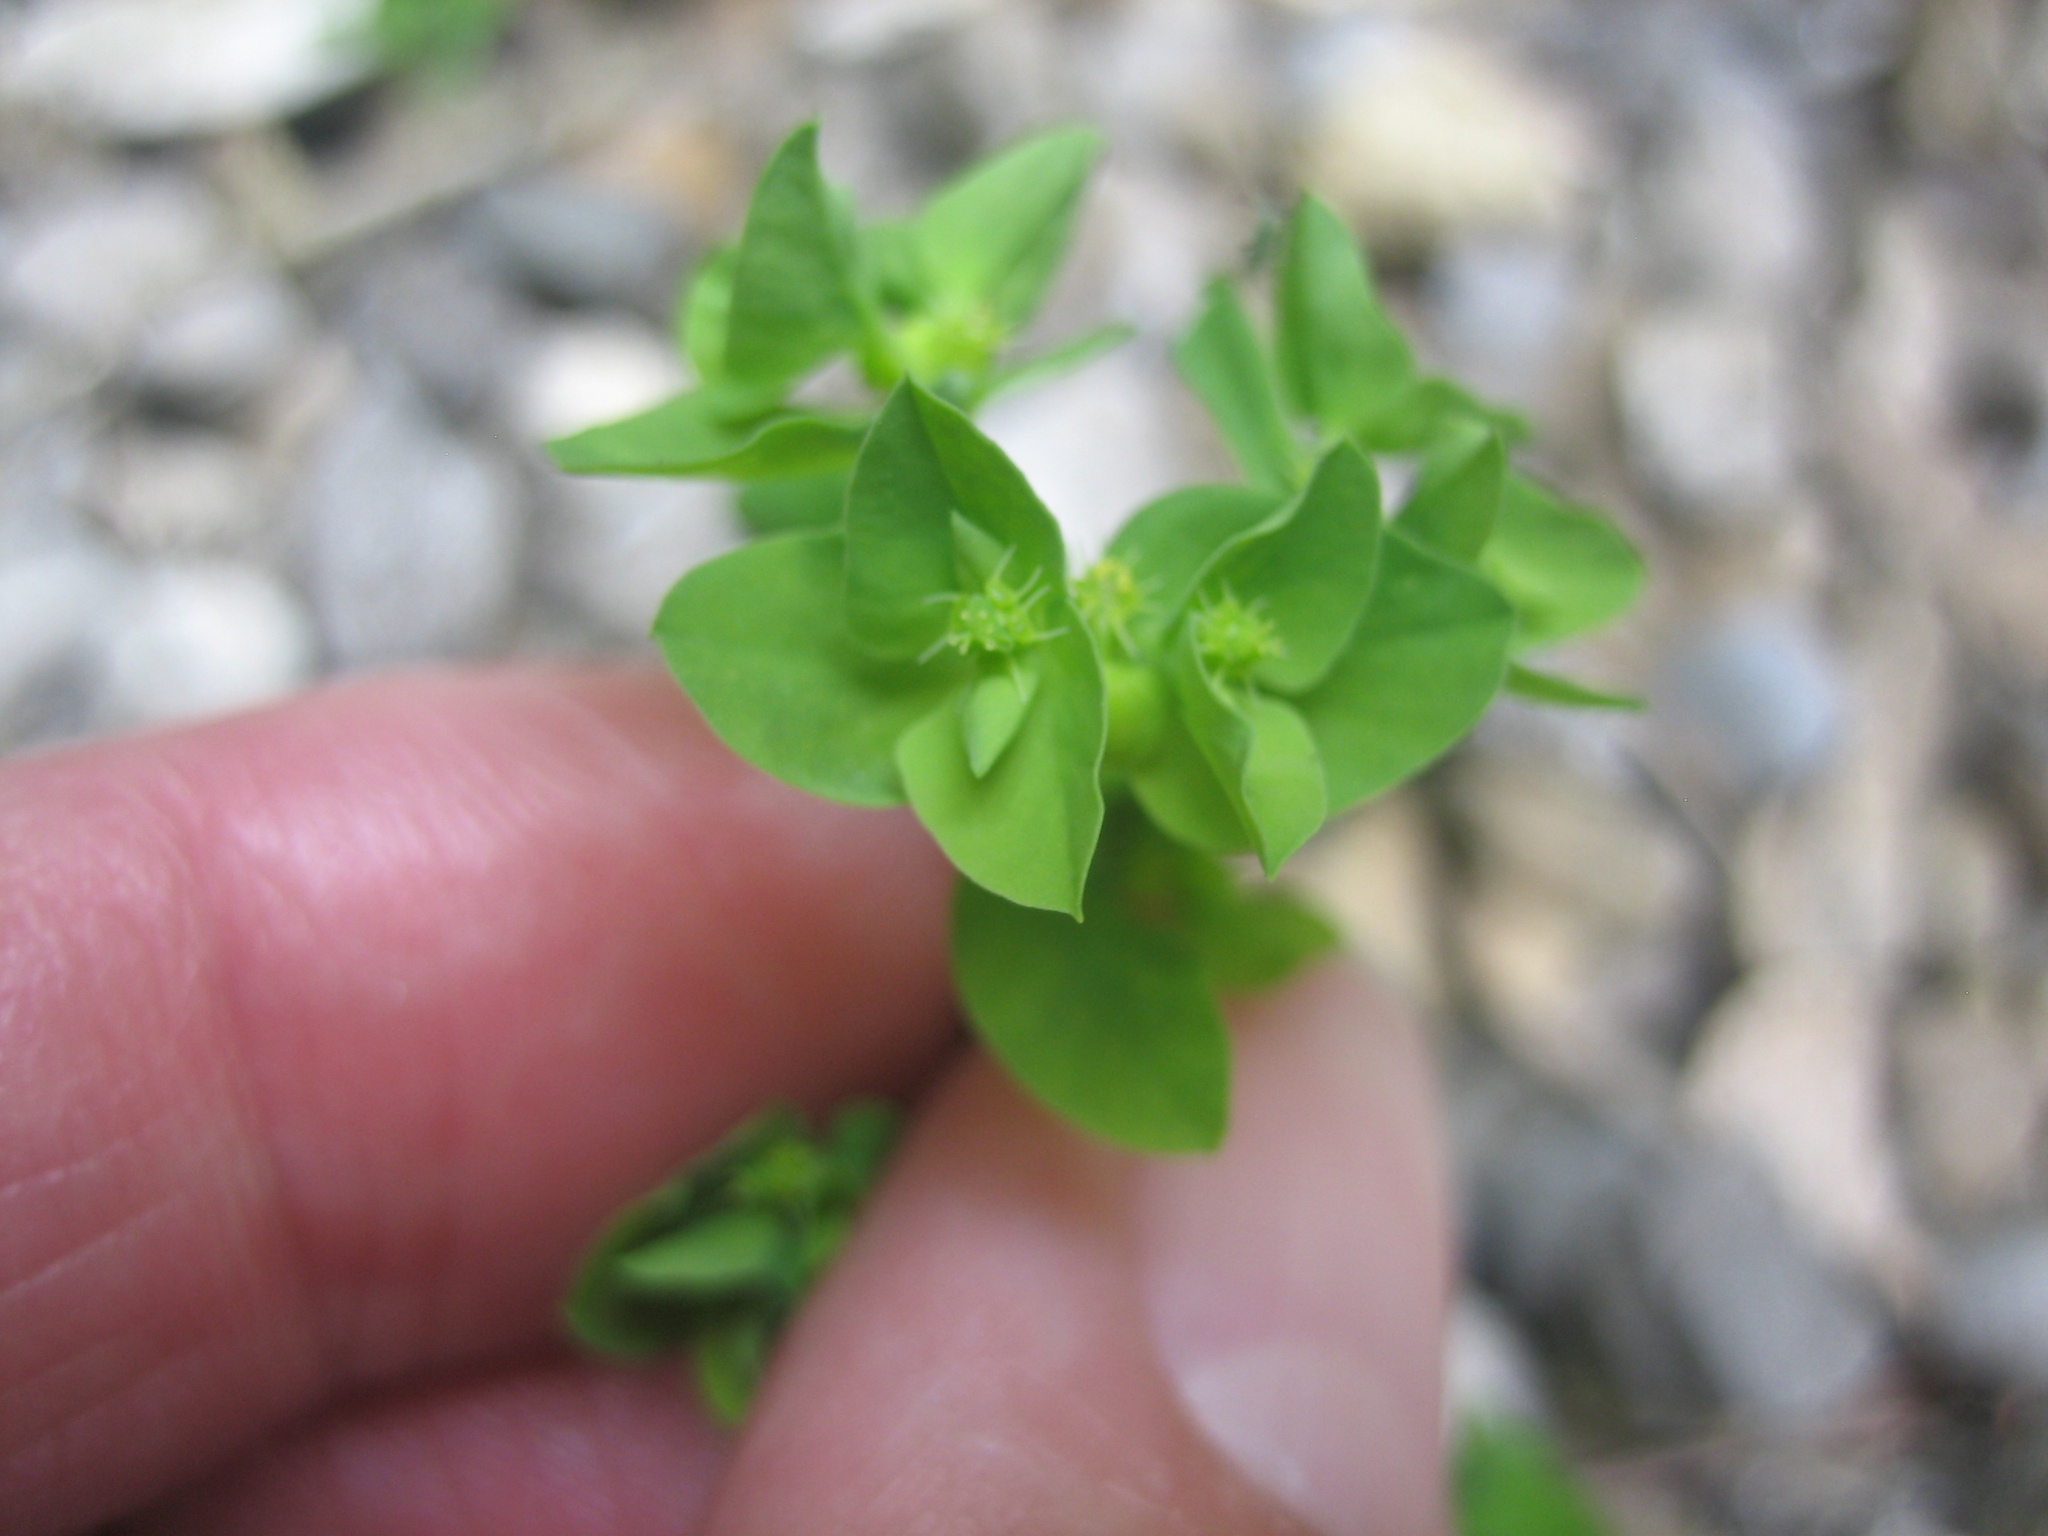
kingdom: Plantae
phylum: Tracheophyta
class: Magnoliopsida
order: Malpighiales
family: Euphorbiaceae
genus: Euphorbia
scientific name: Euphorbia peplus
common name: Petty spurge
